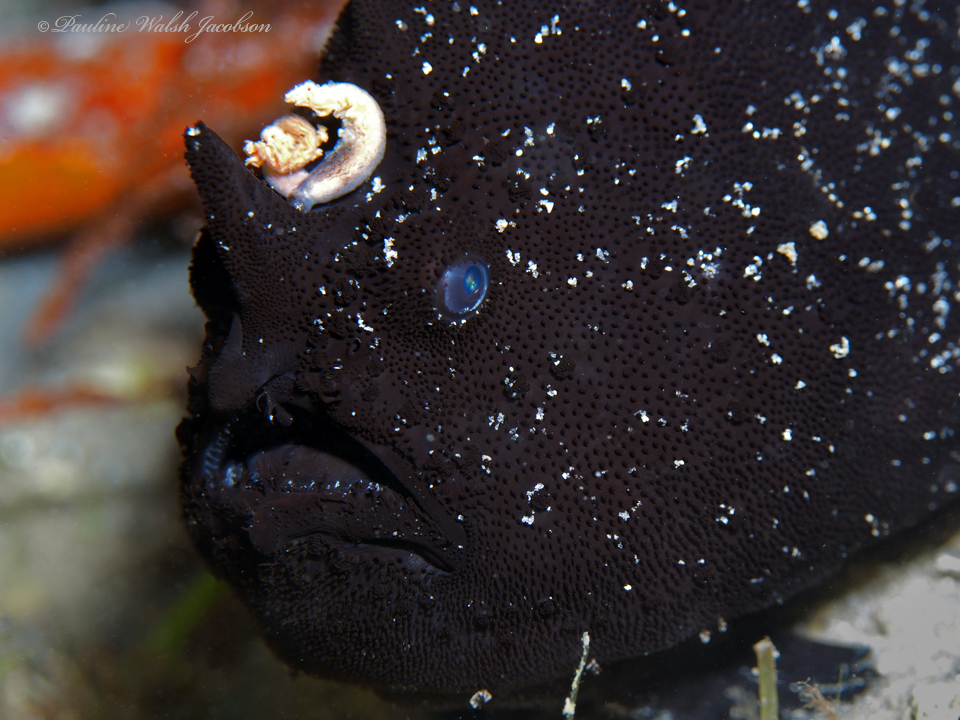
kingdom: Animalia
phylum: Chordata
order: Lophiiformes
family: Antennariidae
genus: Antennarius
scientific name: Antennarius striatus
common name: Striated frogfish
